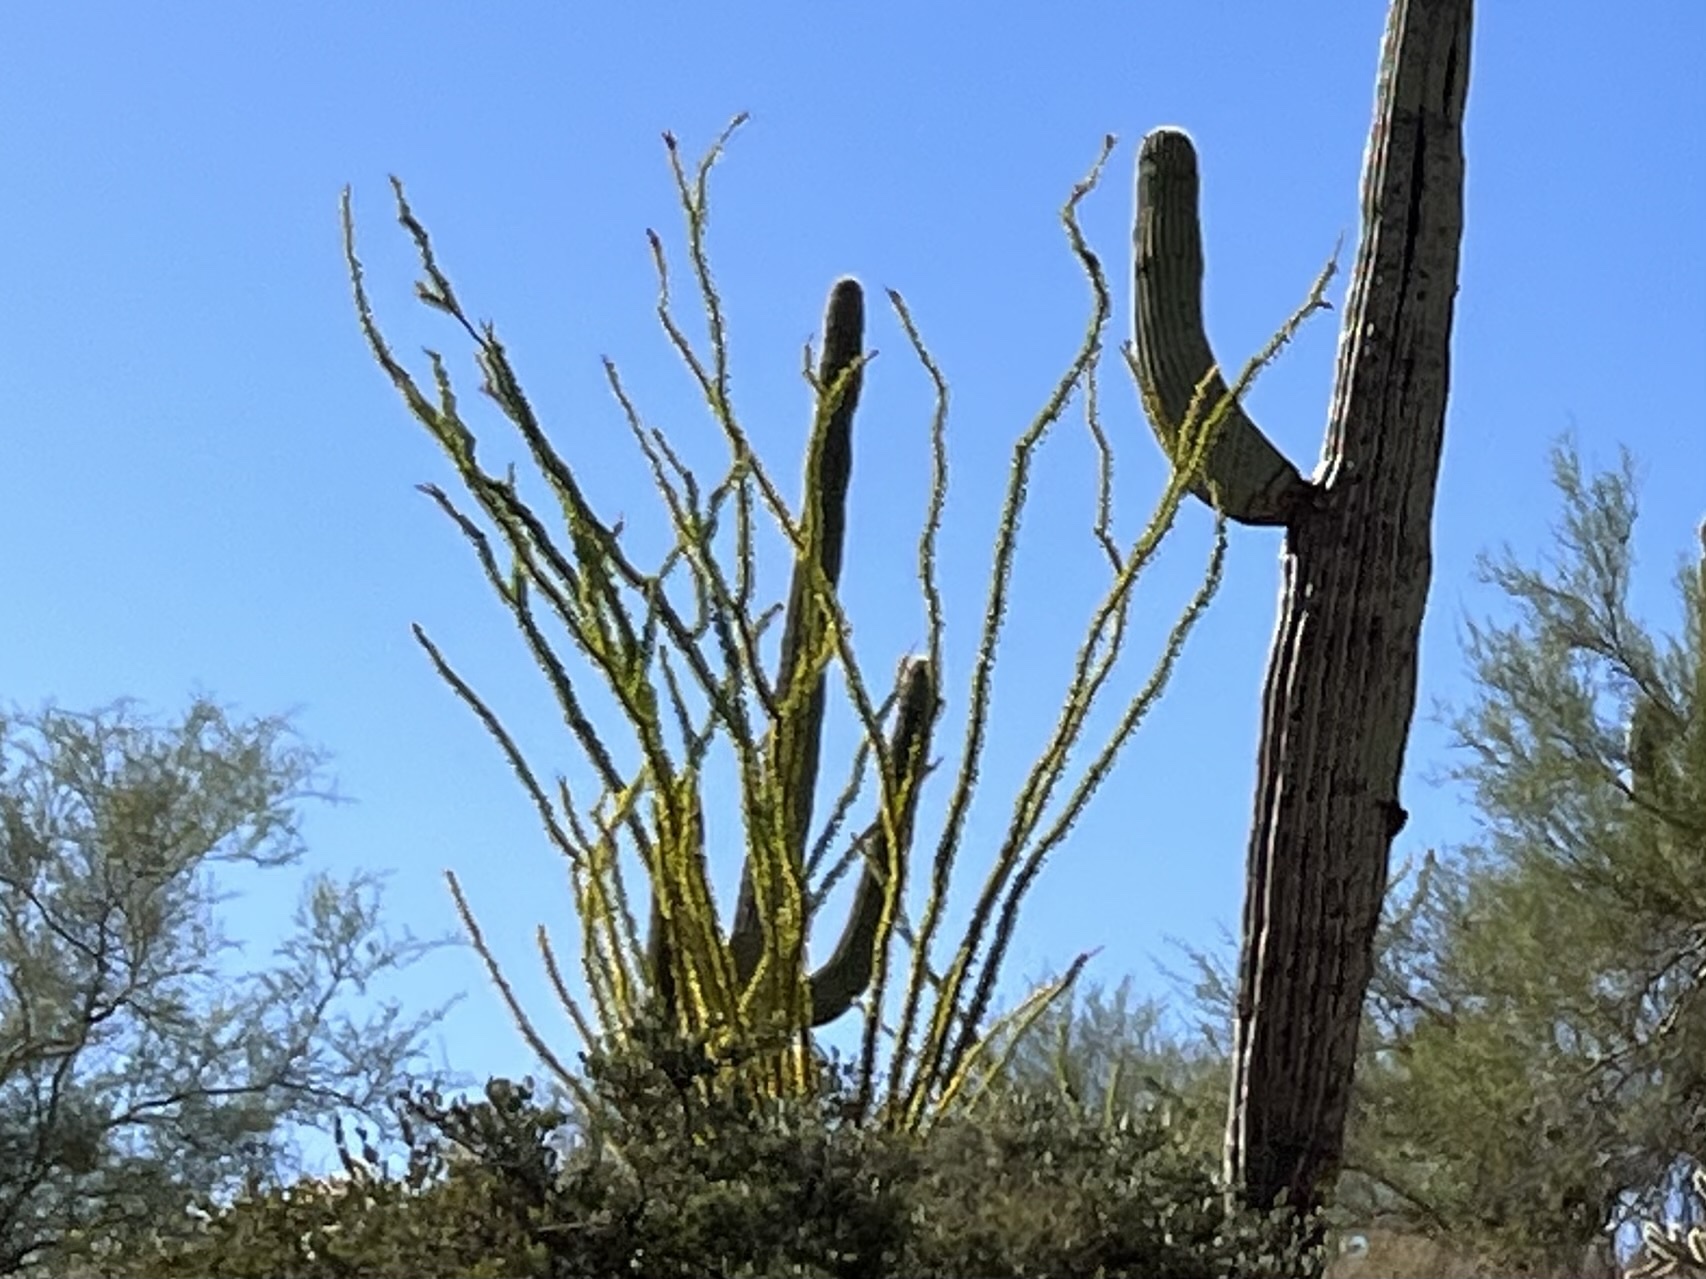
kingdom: Plantae
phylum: Tracheophyta
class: Magnoliopsida
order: Ericales
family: Fouquieriaceae
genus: Fouquieria
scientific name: Fouquieria splendens
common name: Vine-cactus
